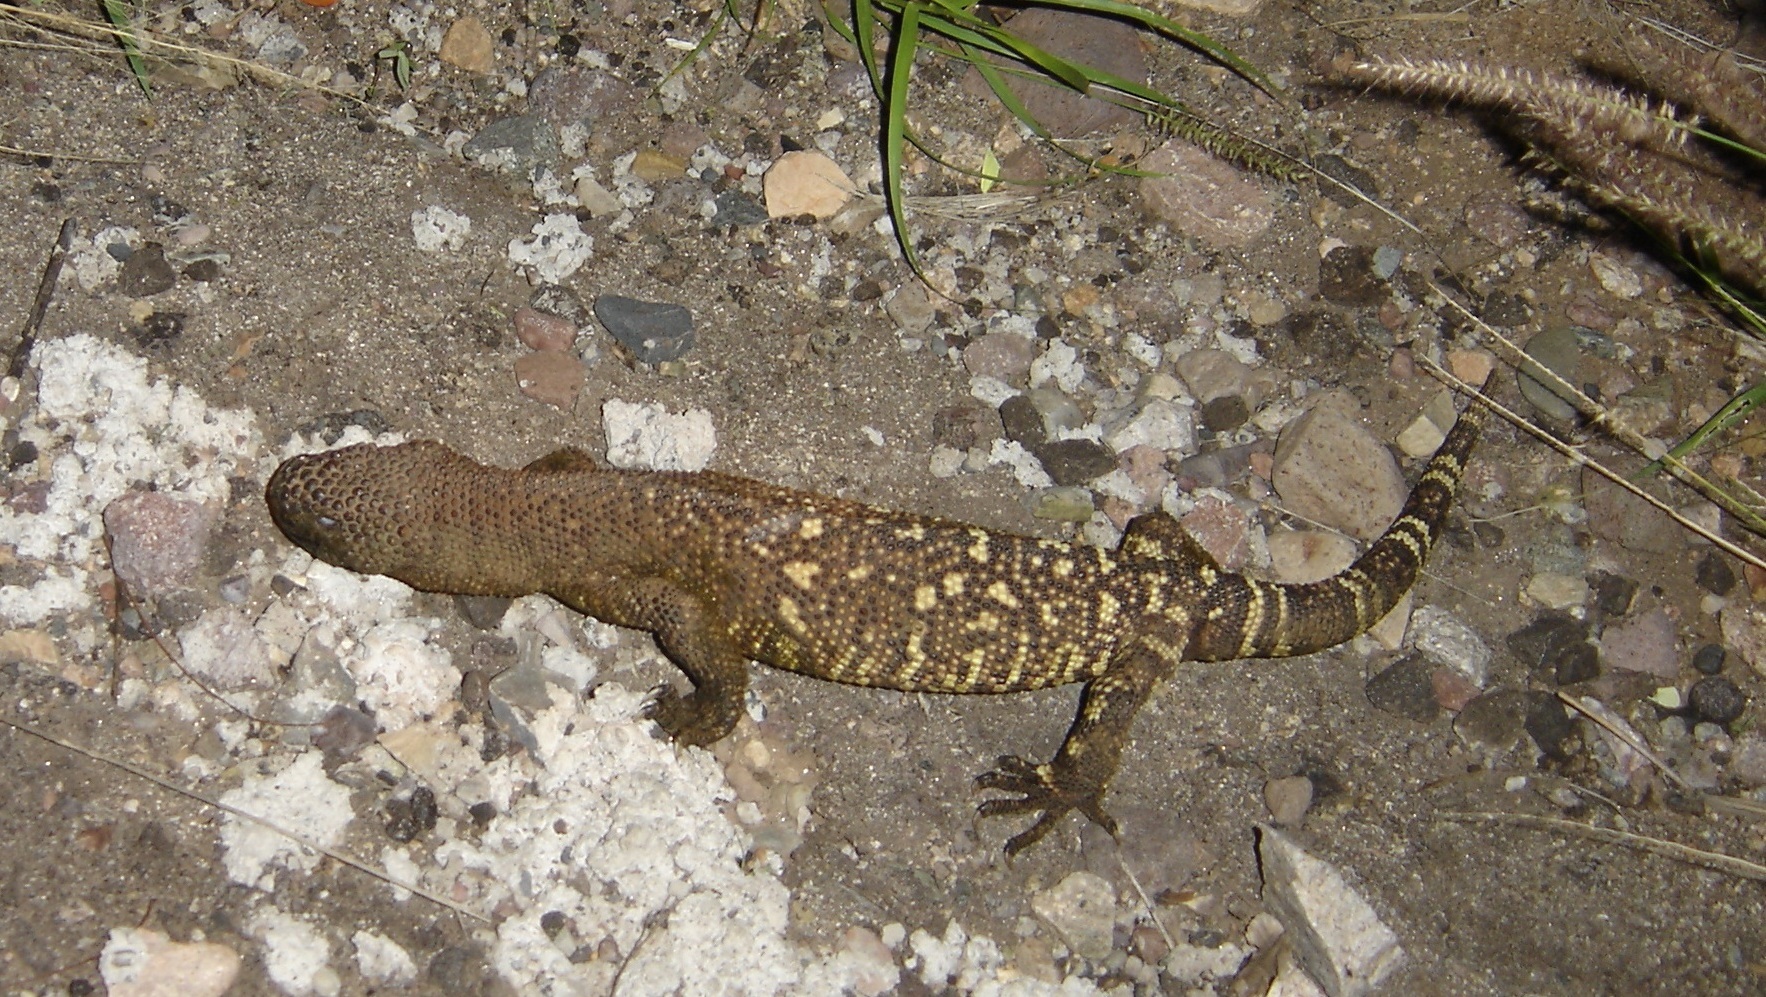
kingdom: Animalia
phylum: Chordata
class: Squamata
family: Helodermatidae
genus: Heloderma
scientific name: Heloderma exasperatum
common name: Río fuerte beaded lizard
